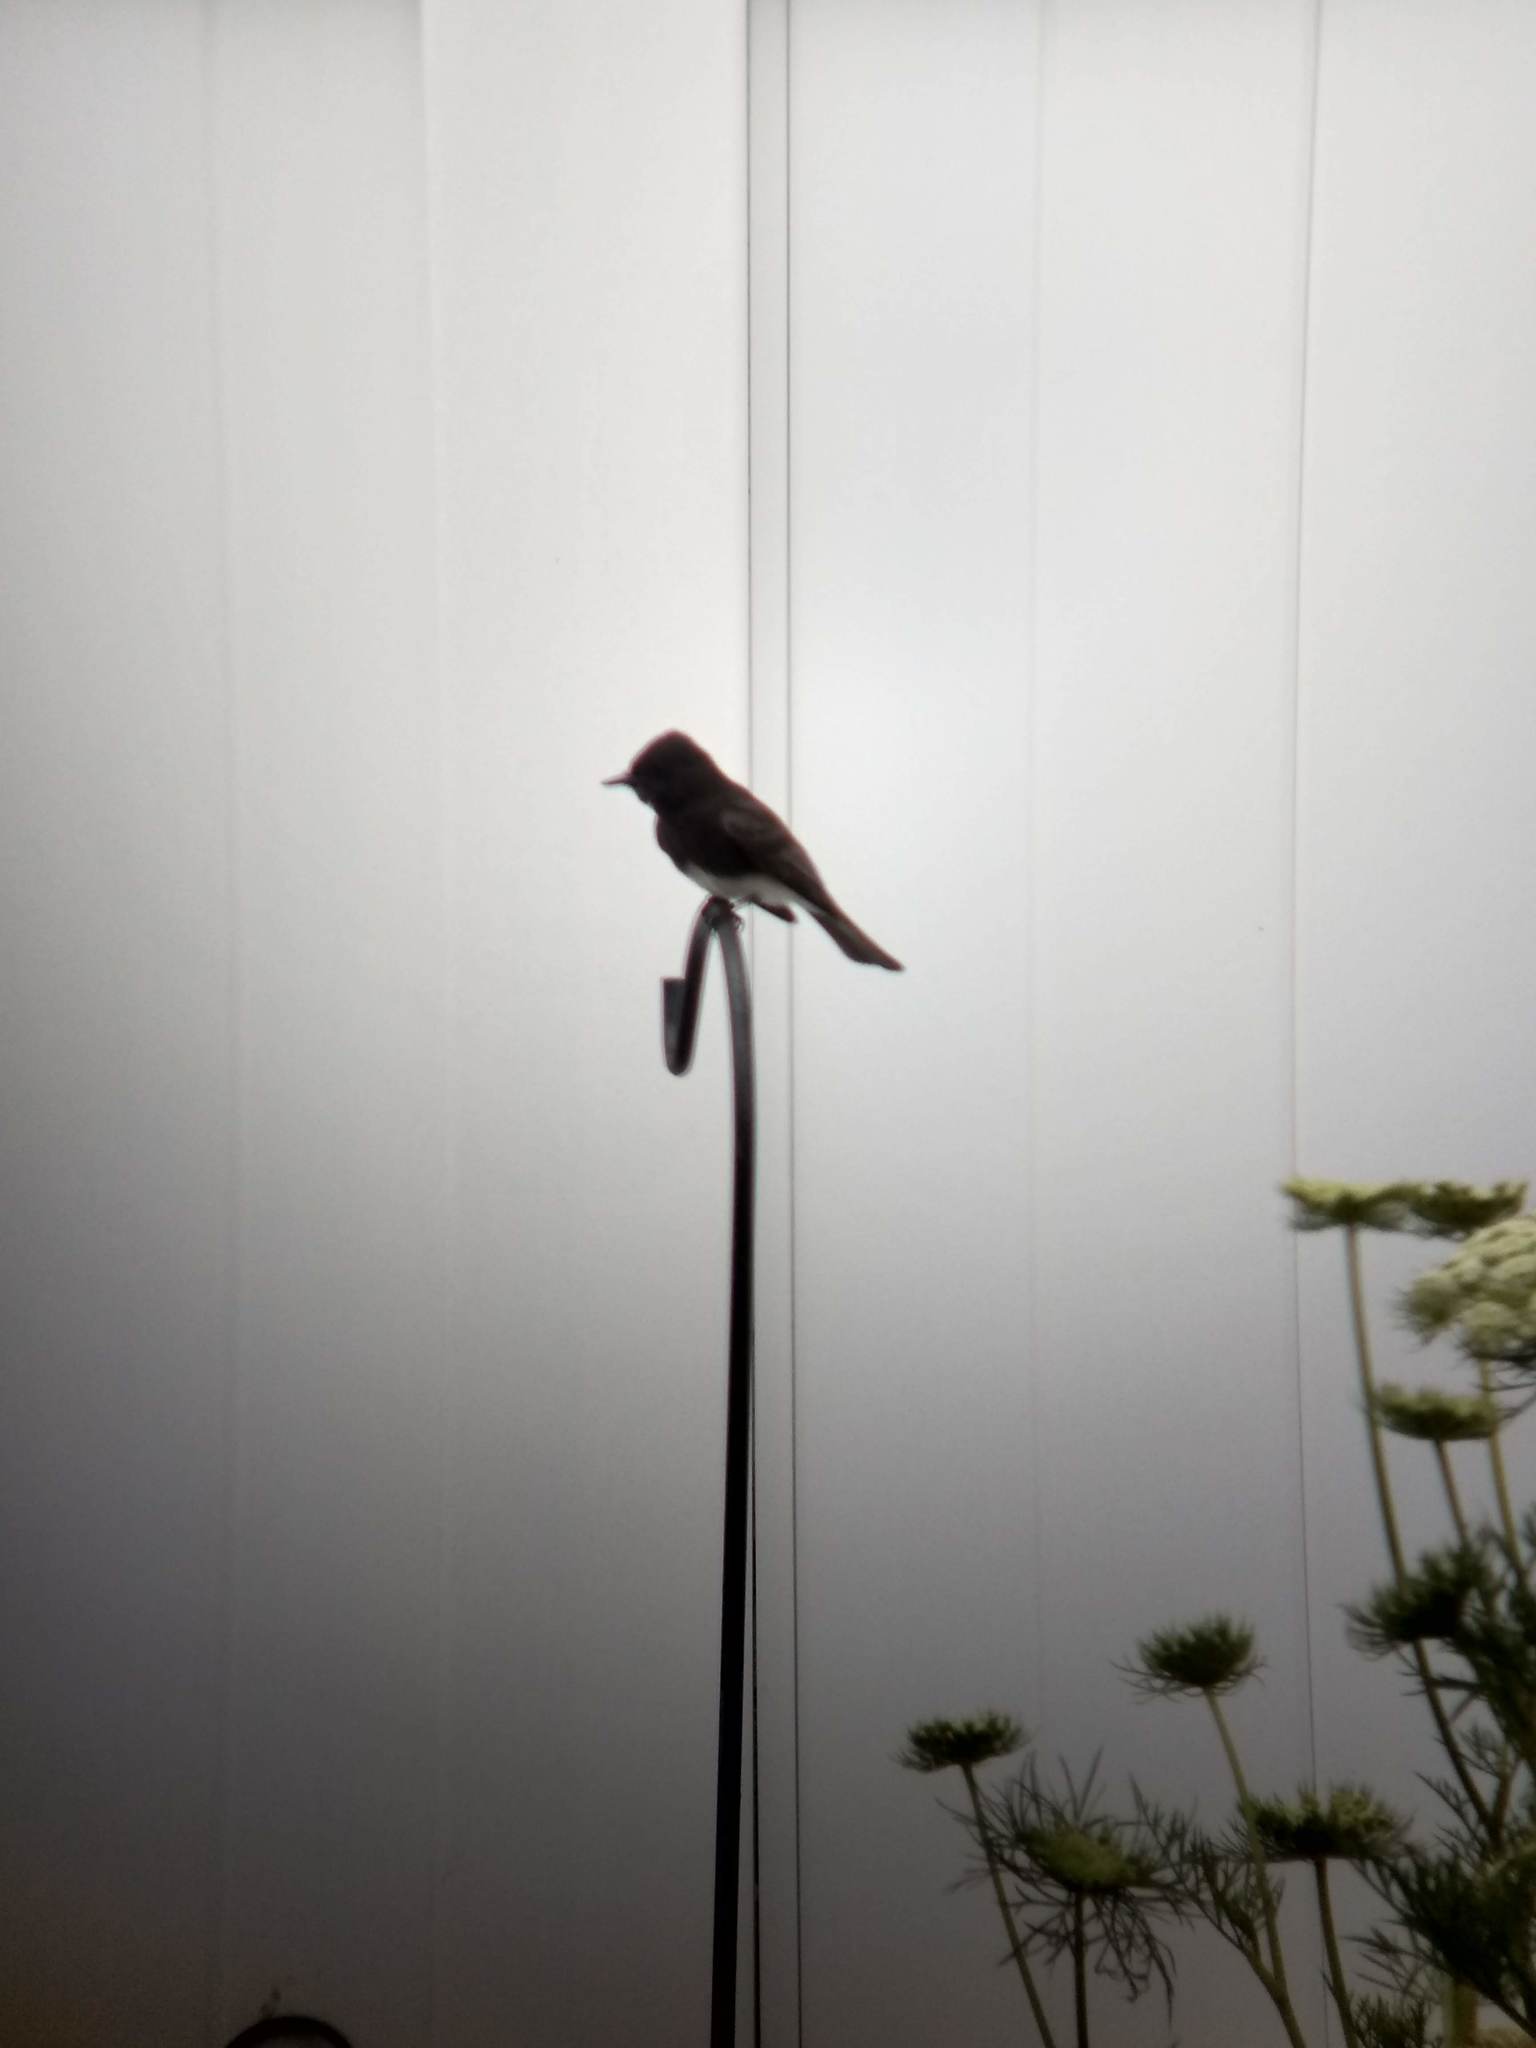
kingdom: Animalia
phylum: Chordata
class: Aves
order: Passeriformes
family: Tyrannidae
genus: Sayornis
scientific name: Sayornis nigricans
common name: Black phoebe
